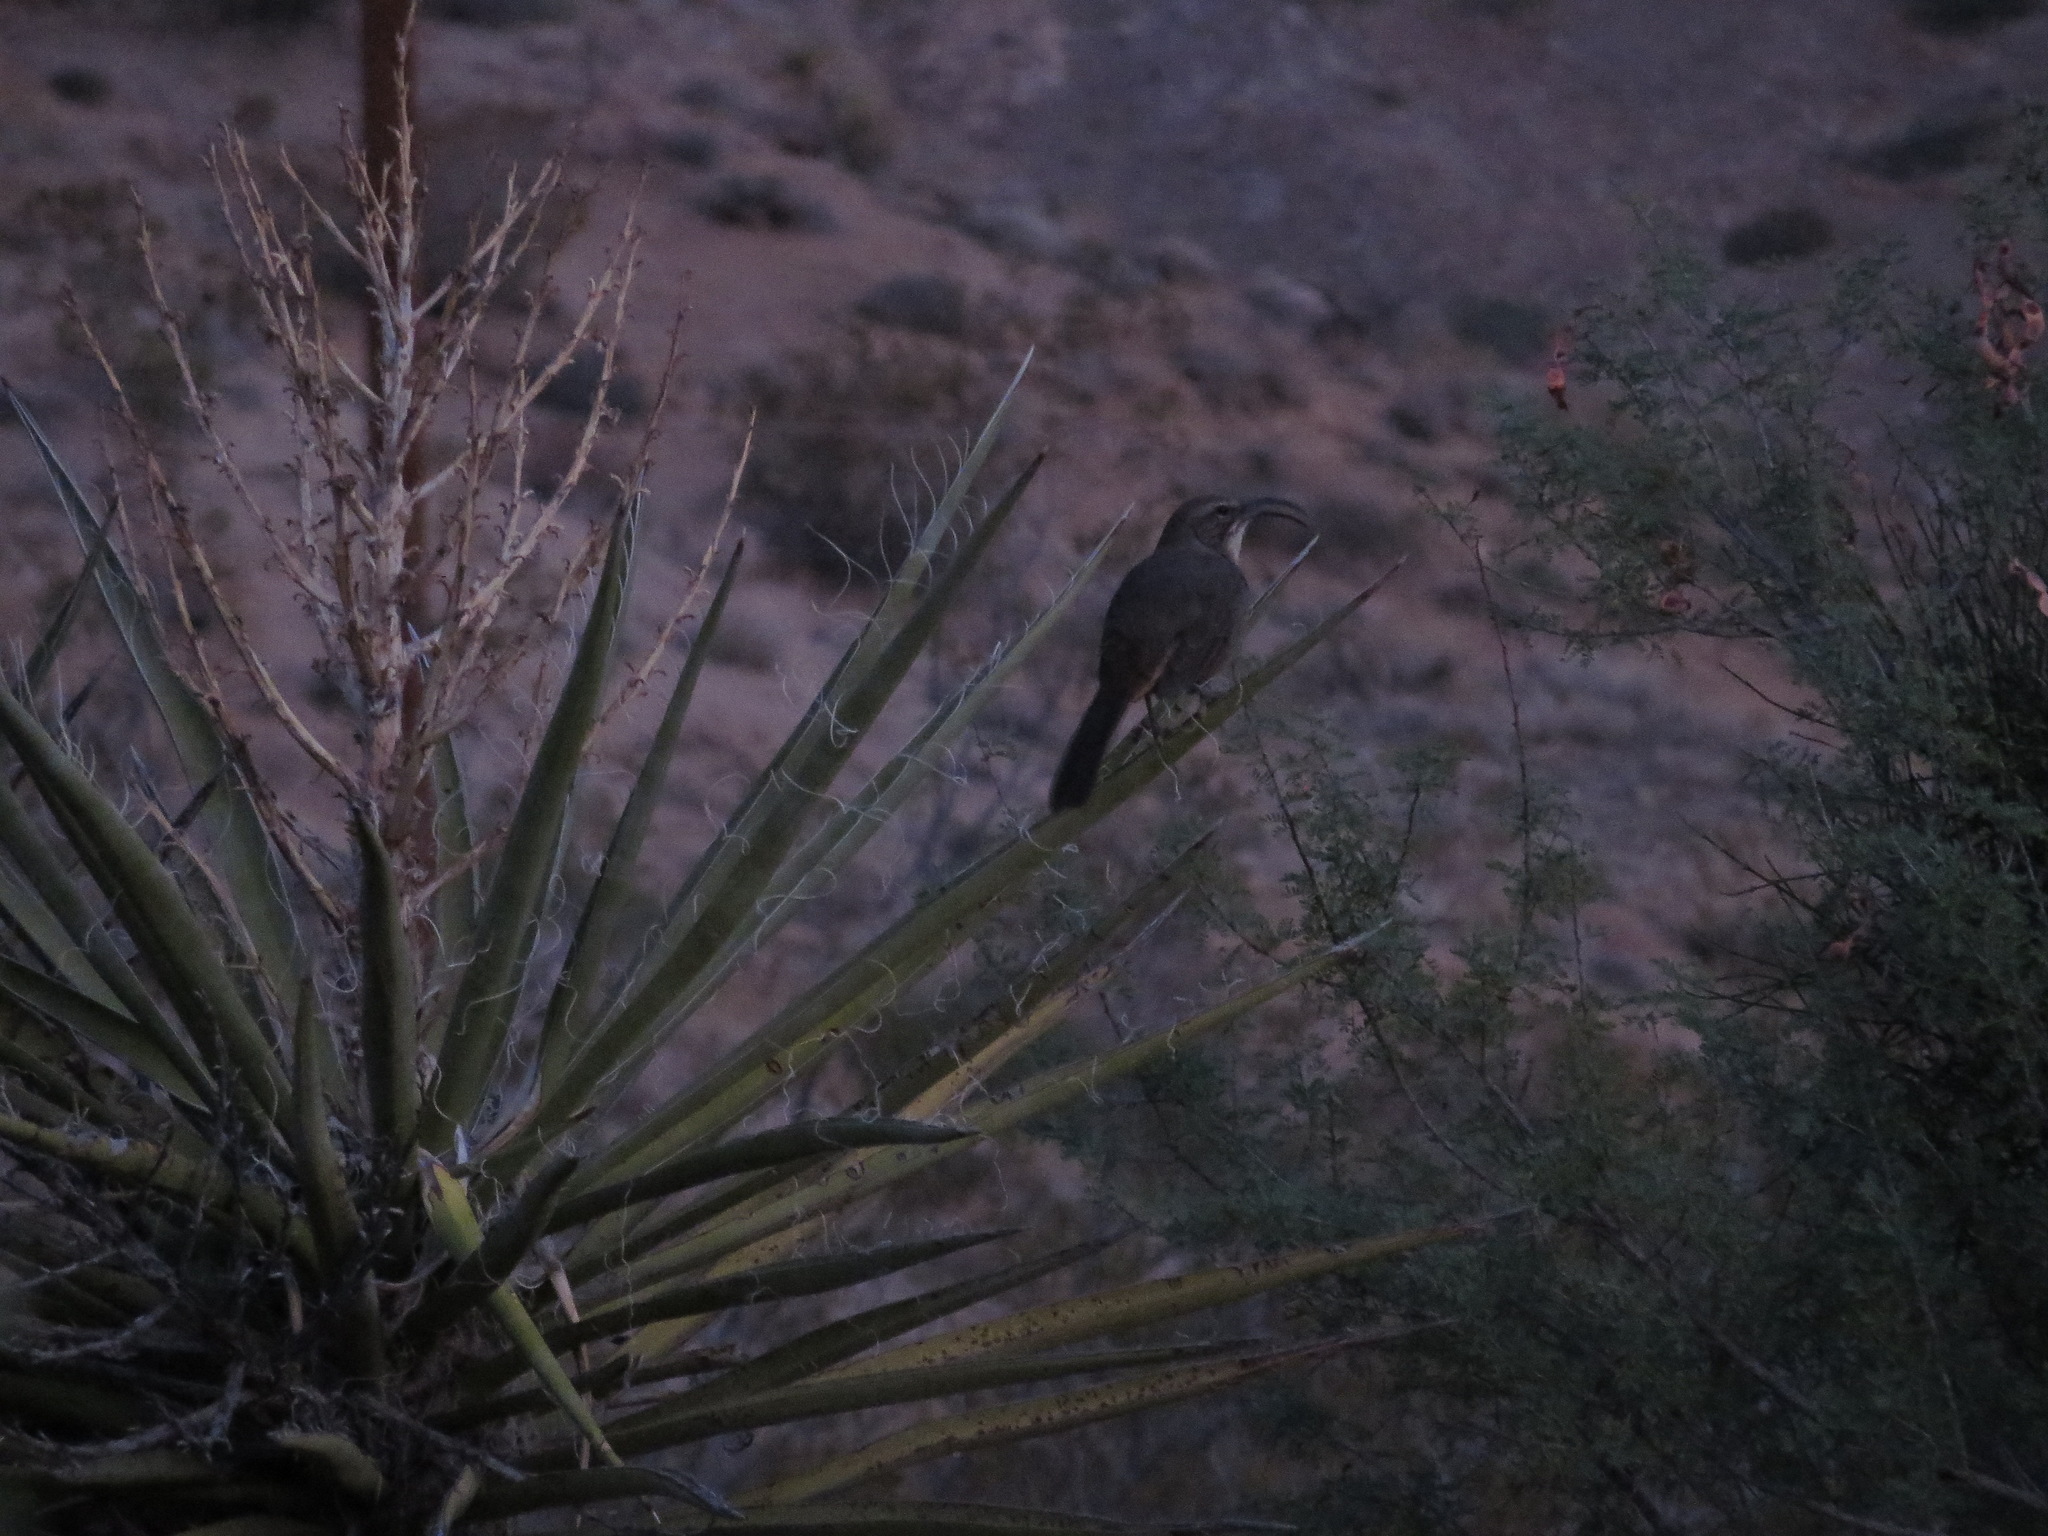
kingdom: Animalia
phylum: Chordata
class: Aves
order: Passeriformes
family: Mimidae
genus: Toxostoma
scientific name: Toxostoma redivivum
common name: California thrasher
